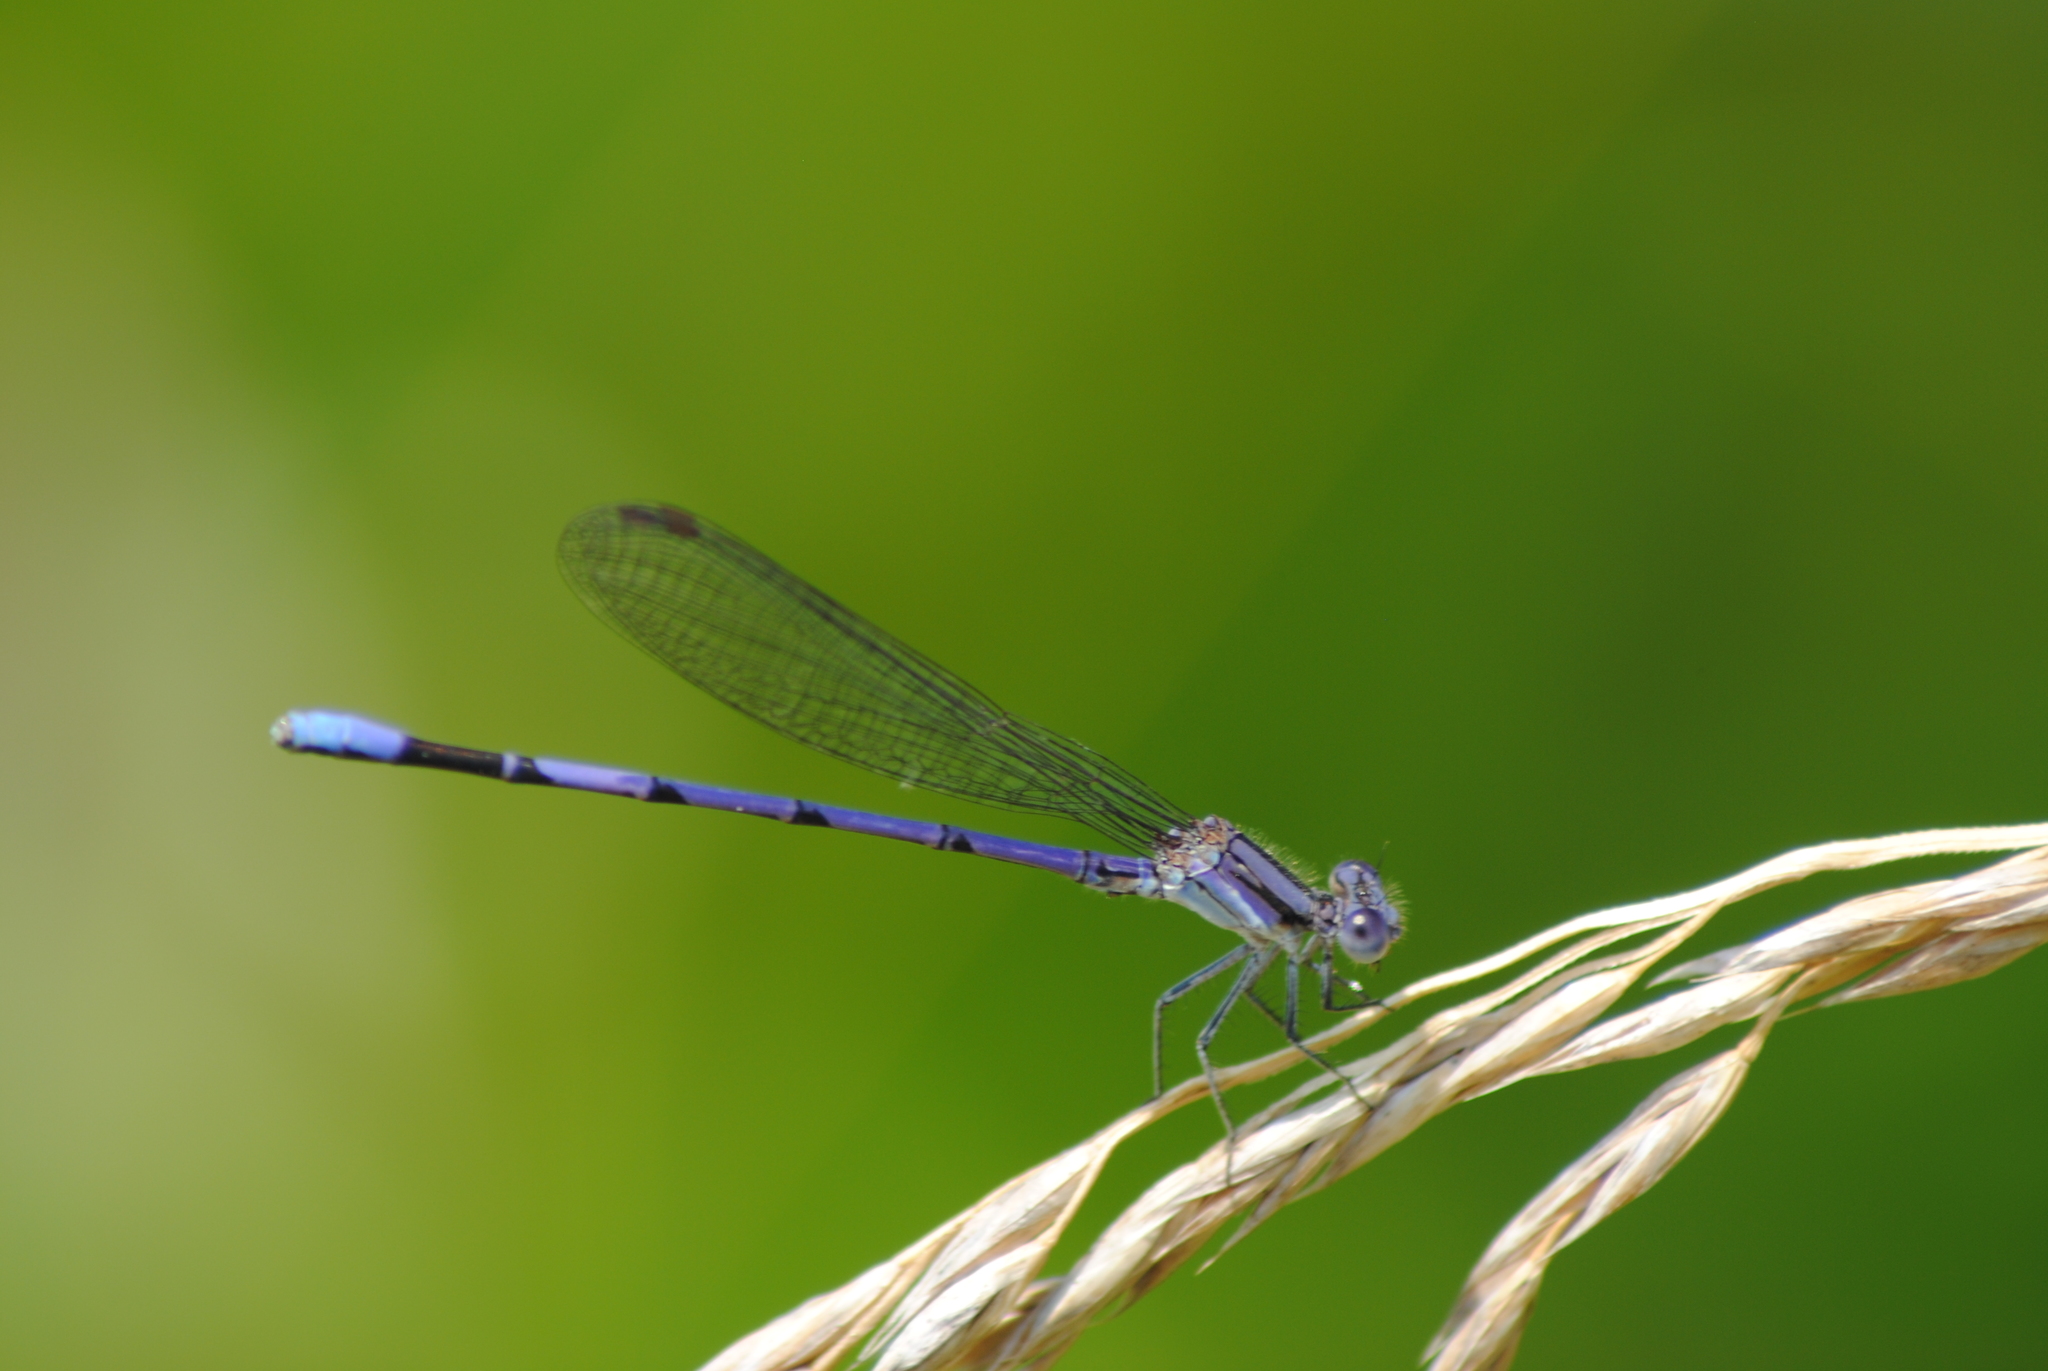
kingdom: Animalia
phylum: Arthropoda
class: Insecta
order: Odonata
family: Coenagrionidae
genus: Argia
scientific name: Argia fumipennis
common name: Variable dancer
